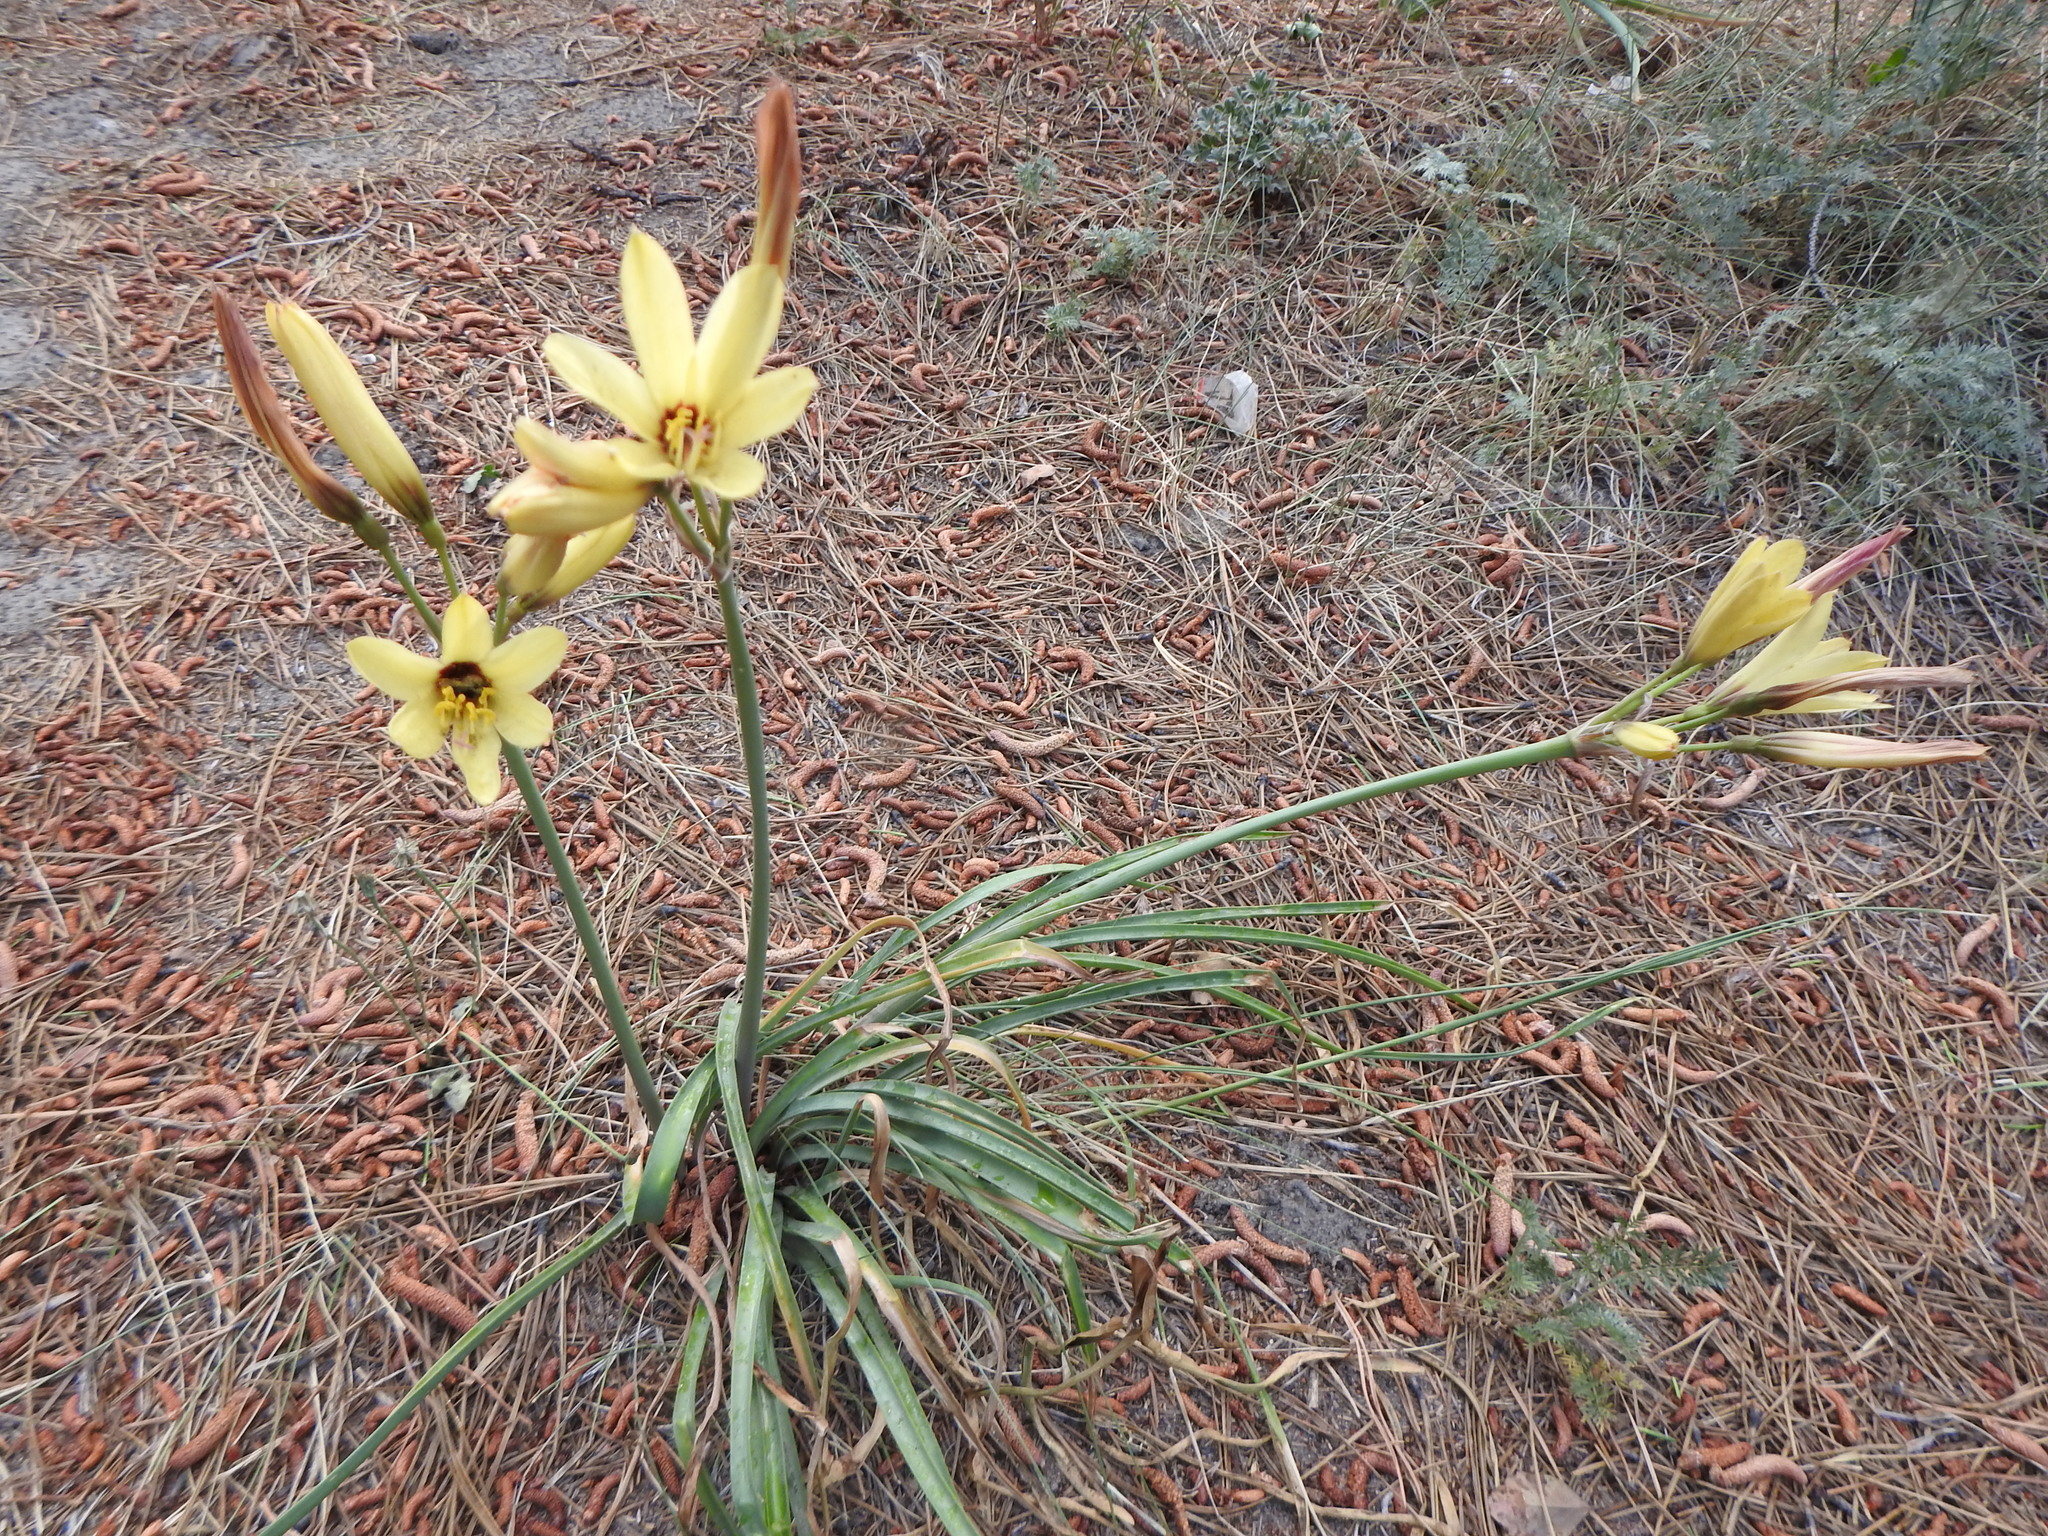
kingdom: Plantae
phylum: Tracheophyta
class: Liliopsida
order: Asparagales
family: Amaryllidaceae
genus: Zephyranthes
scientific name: Zephyranthes araucana
